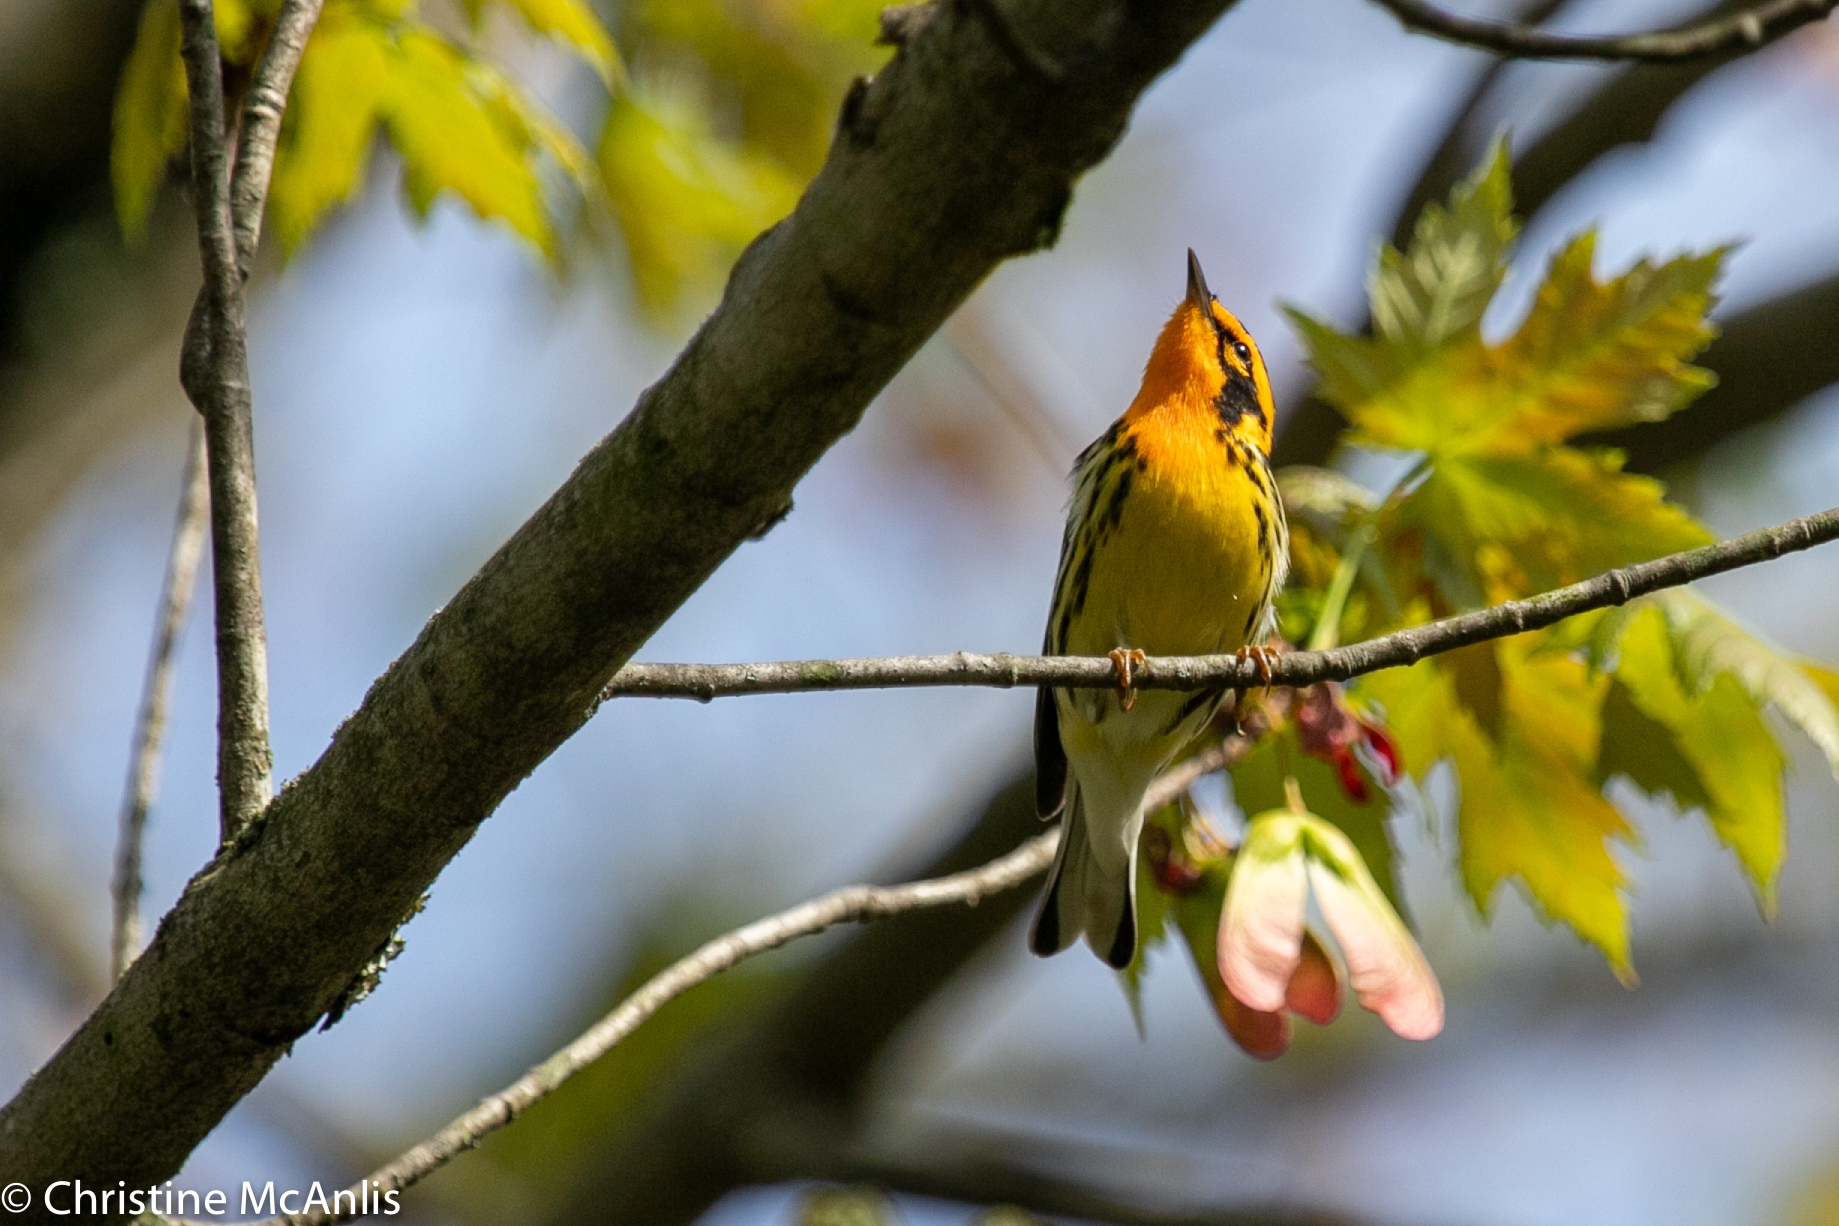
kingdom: Animalia
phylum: Chordata
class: Aves
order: Passeriformes
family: Parulidae
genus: Setophaga
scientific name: Setophaga fusca
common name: Blackburnian warbler
